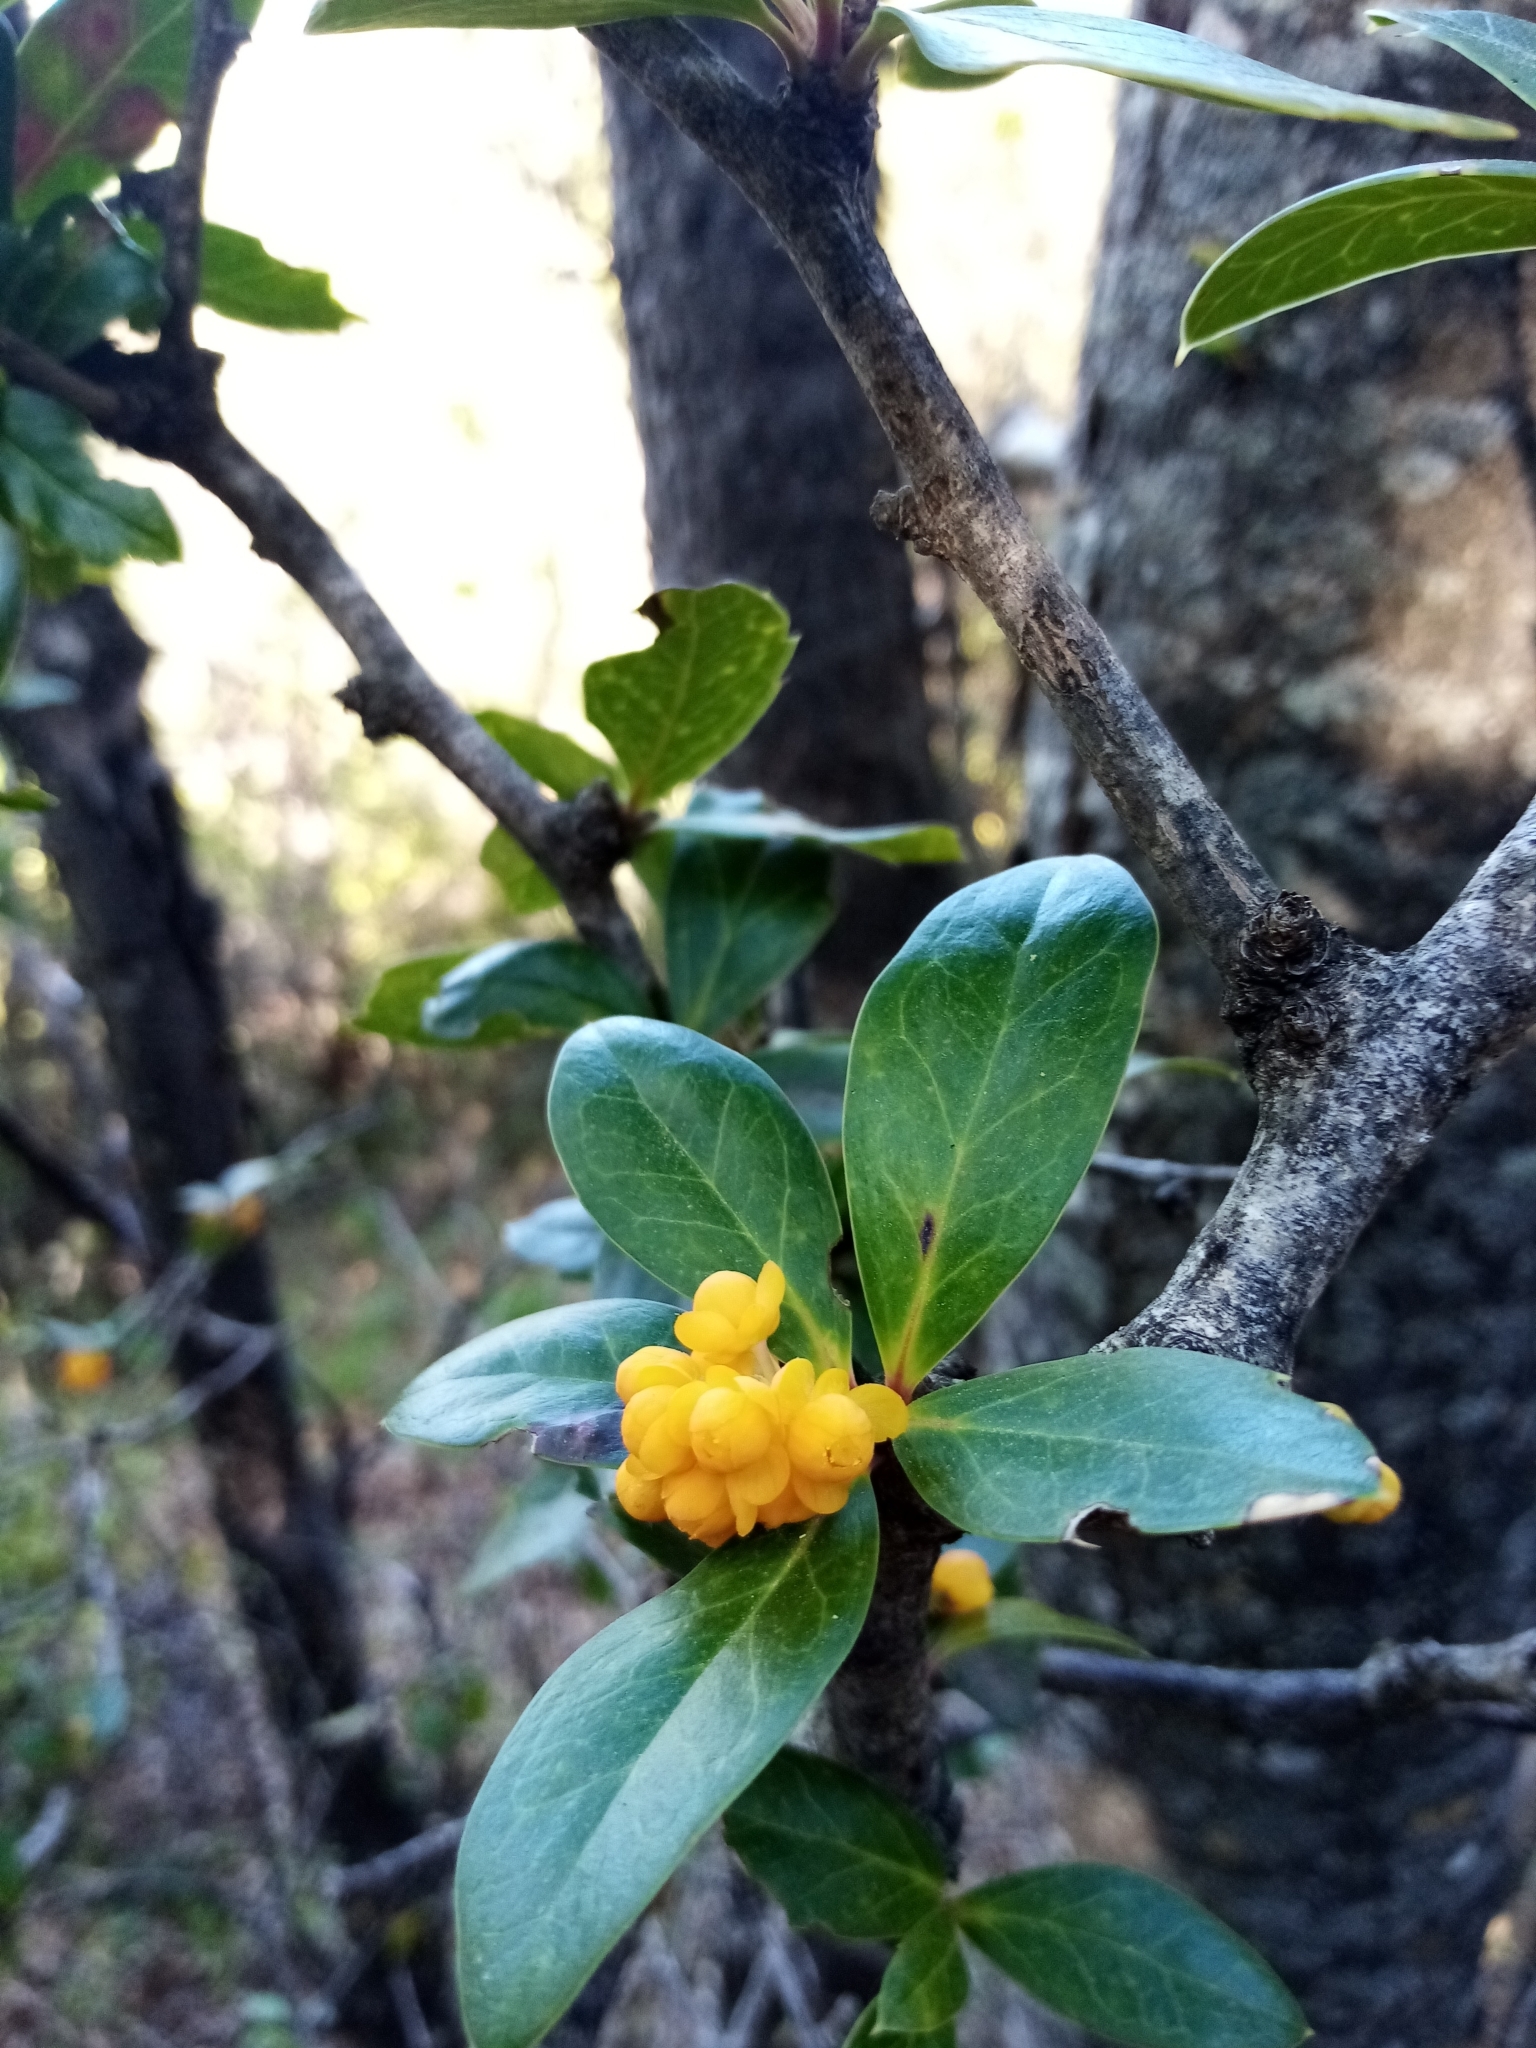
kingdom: Plantae
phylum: Tracheophyta
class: Magnoliopsida
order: Ranunculales
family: Berberidaceae
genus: Berberis
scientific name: Berberis valdiviana
